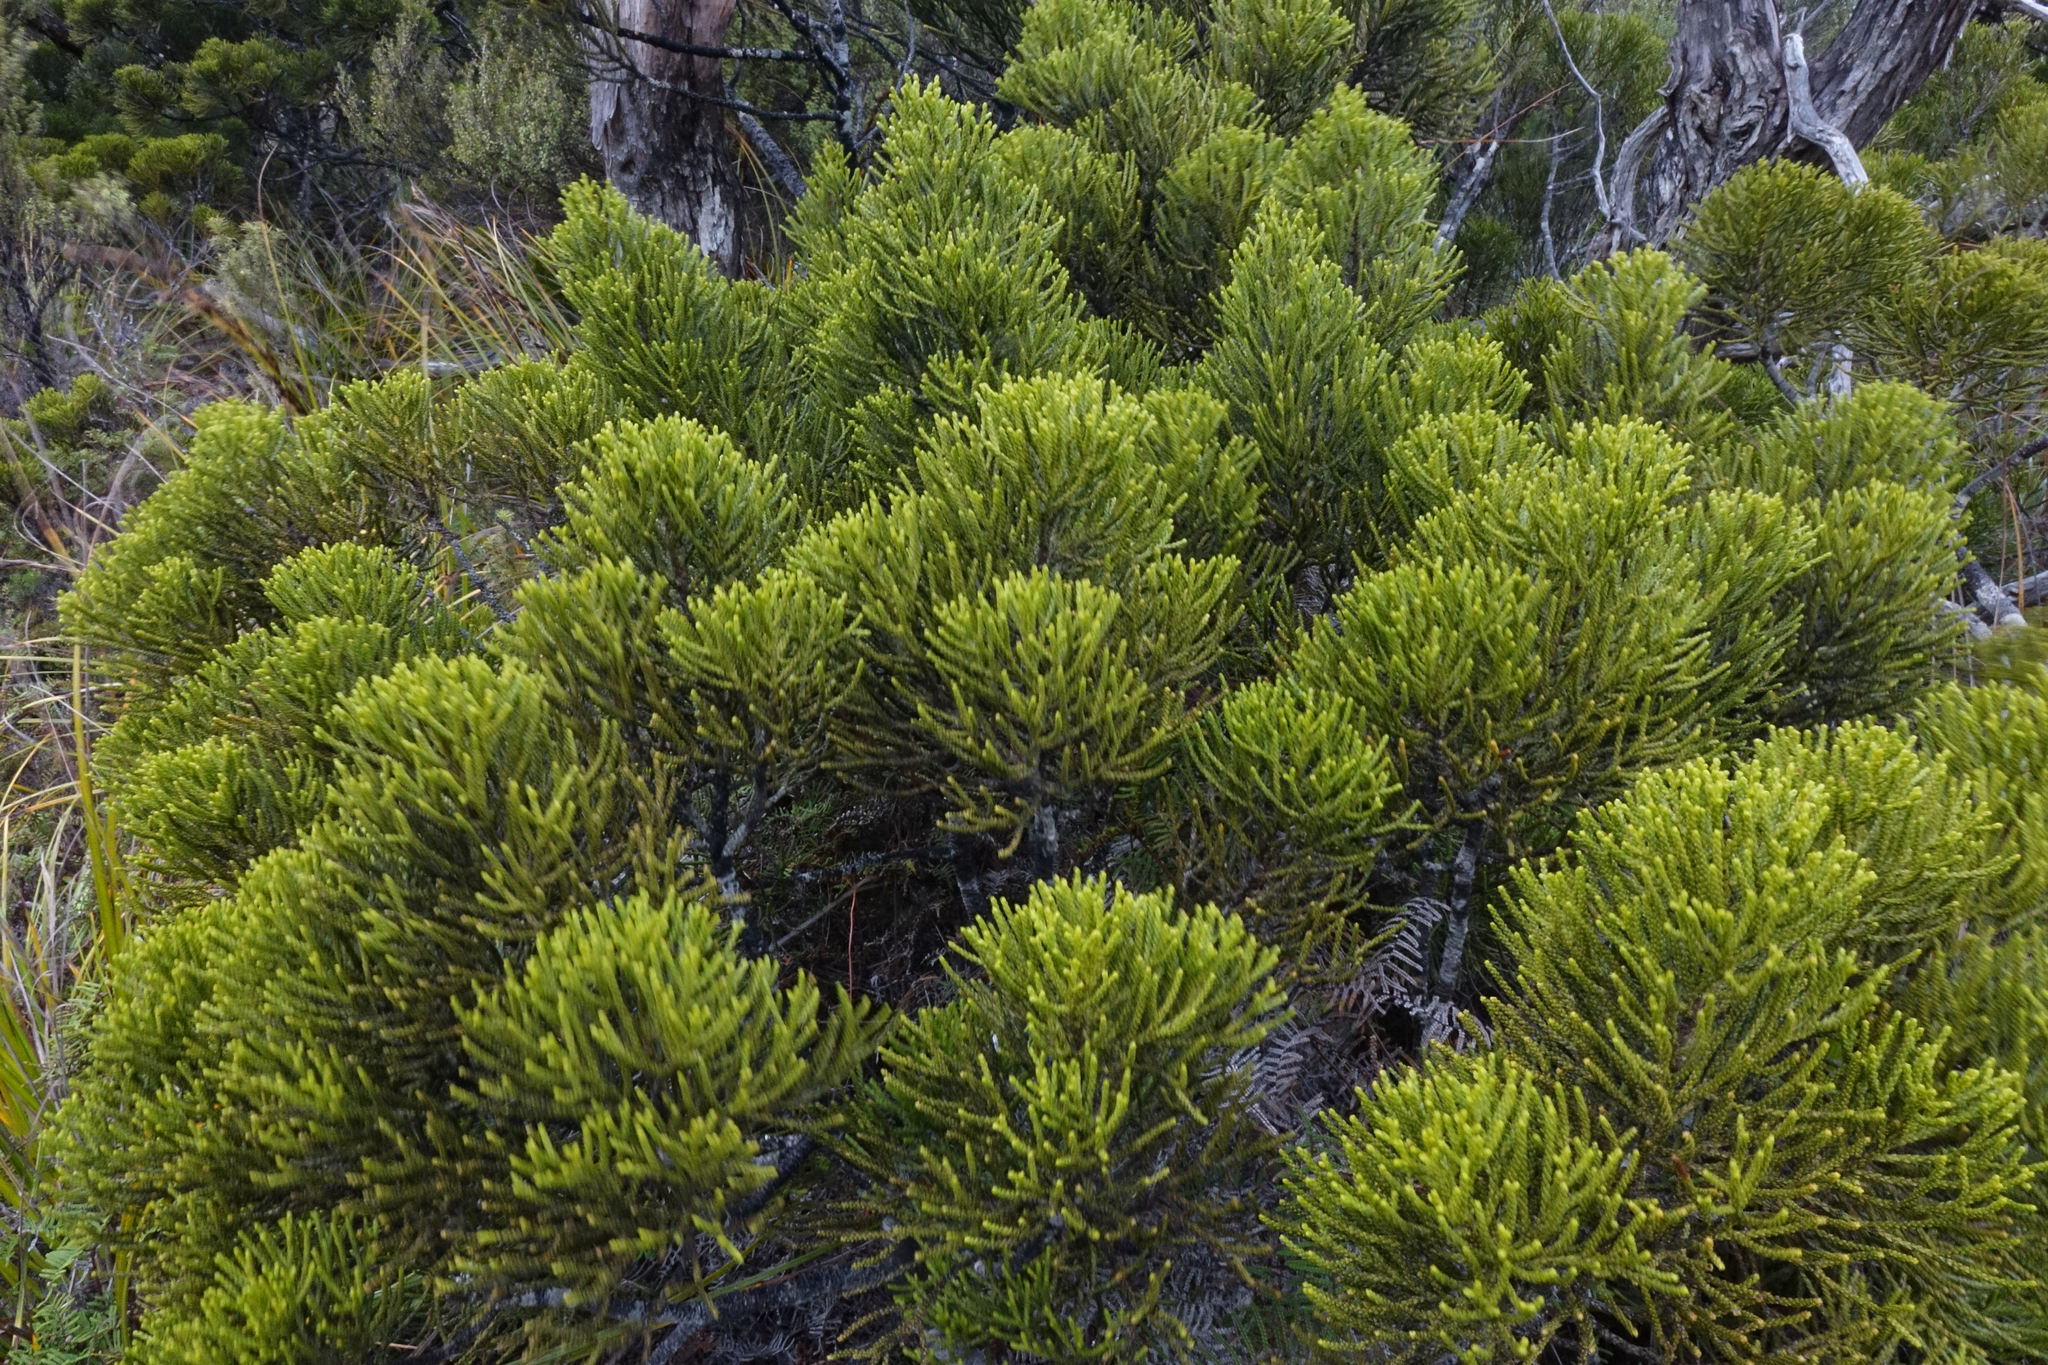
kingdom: Plantae
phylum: Tracheophyta
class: Pinopsida
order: Pinales
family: Podocarpaceae
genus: Halocarpus
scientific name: Halocarpus biformis
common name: Alpine tarwood
